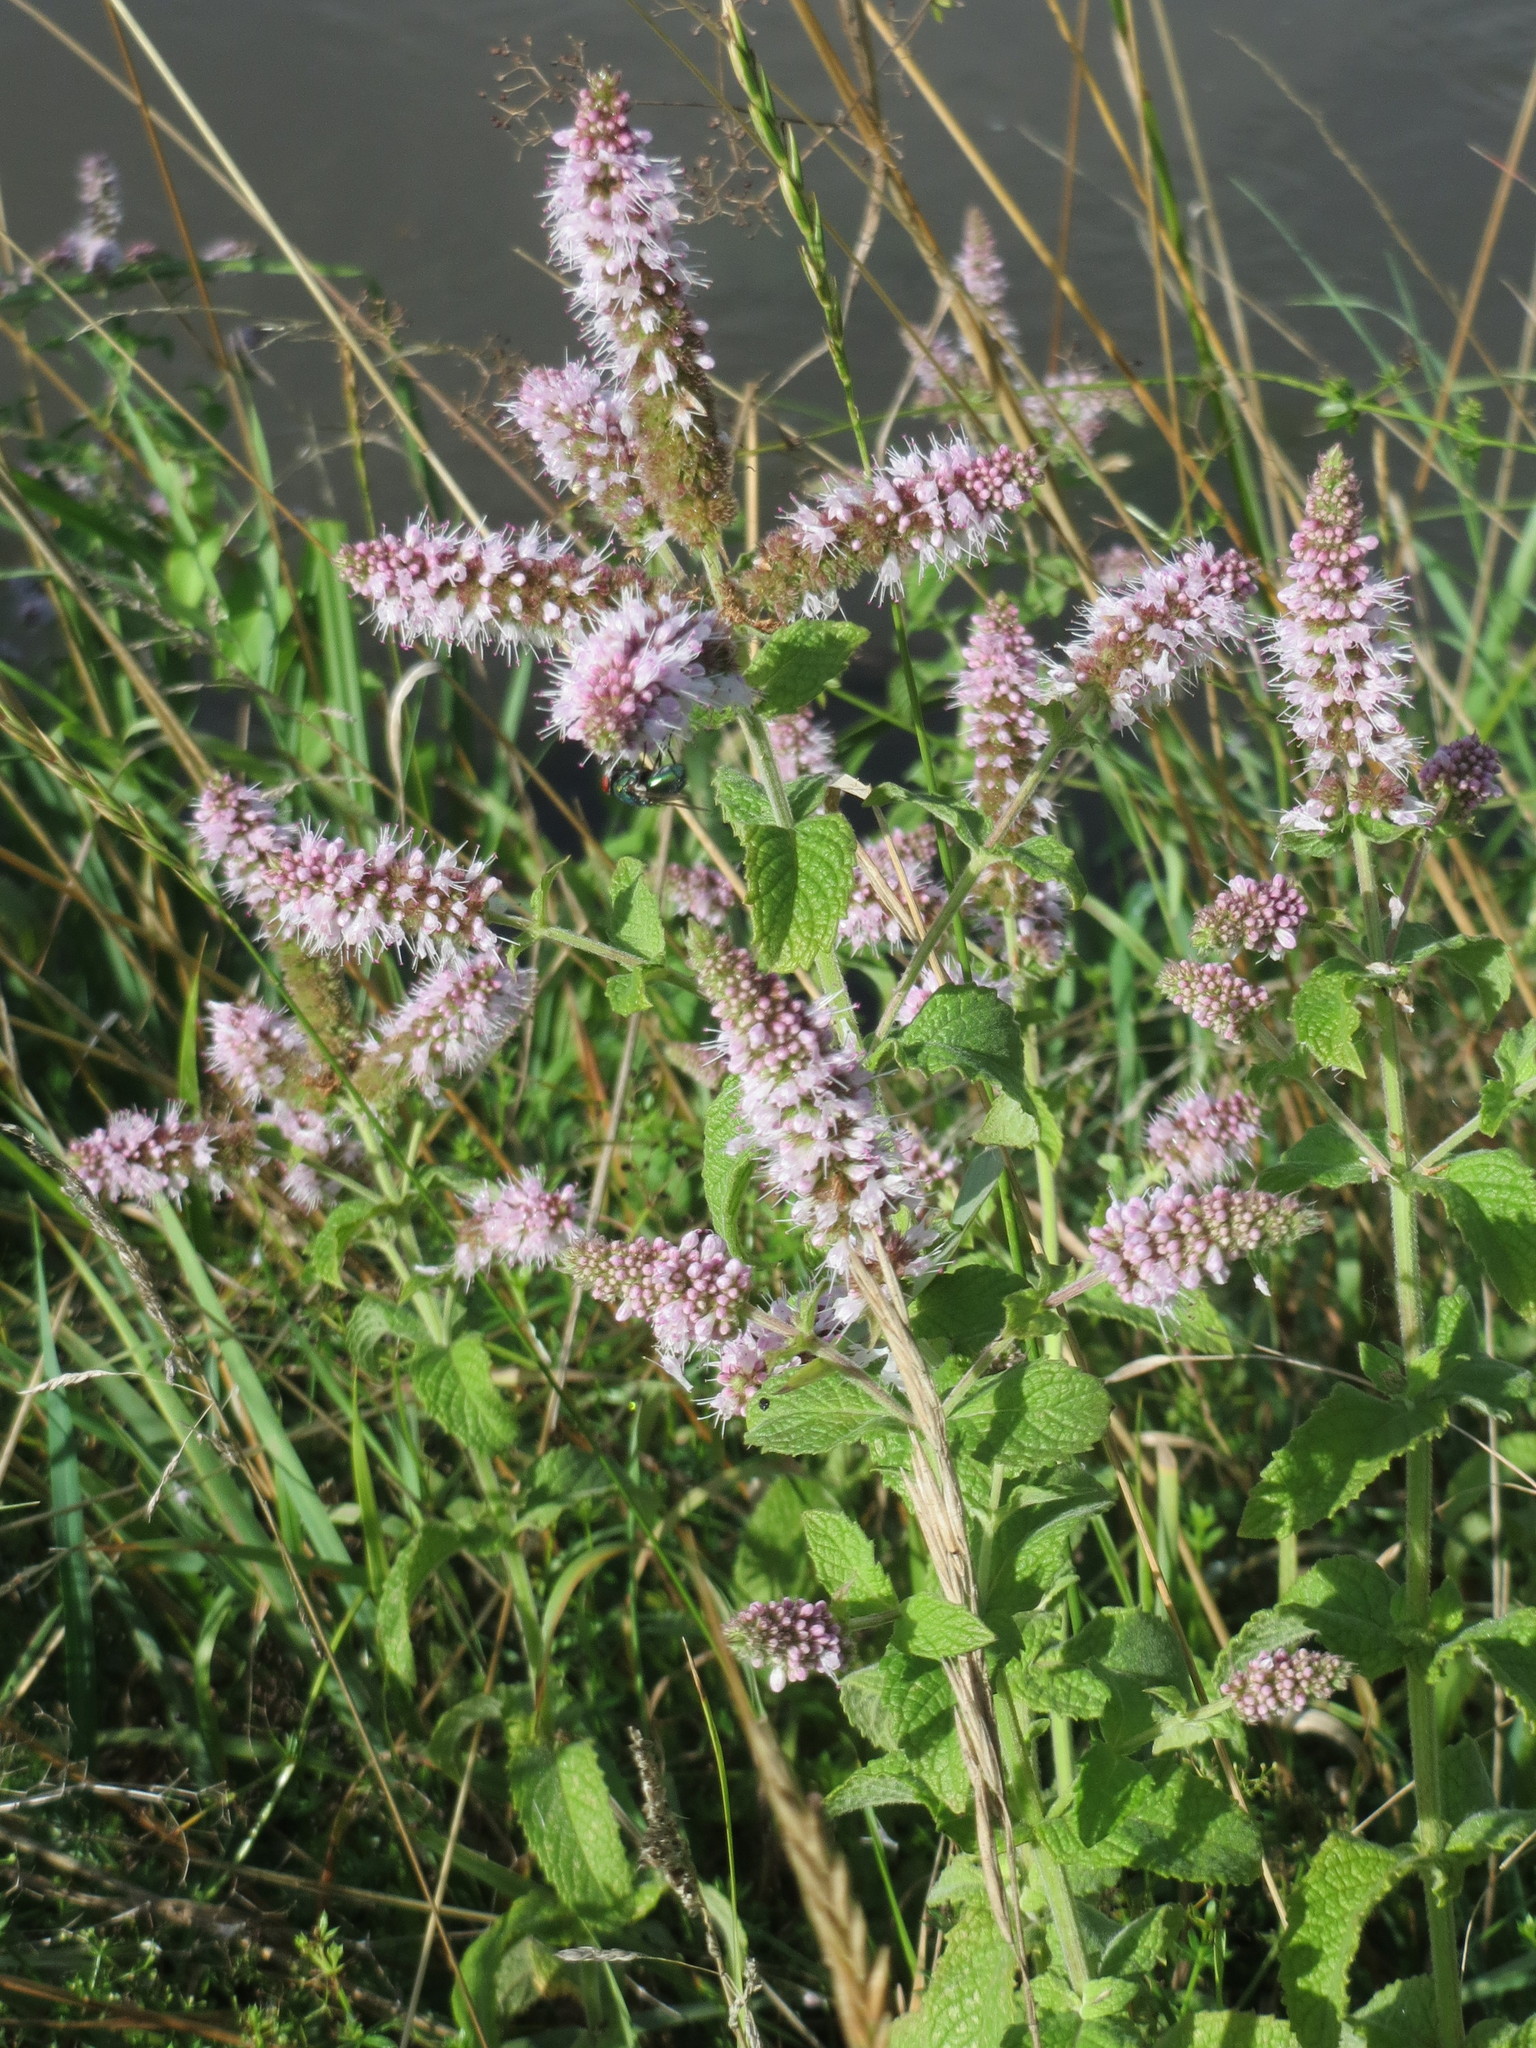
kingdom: Plantae
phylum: Tracheophyta
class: Magnoliopsida
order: Lamiales
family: Lamiaceae
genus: Mentha
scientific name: Mentha longifolia
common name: Horse mint
